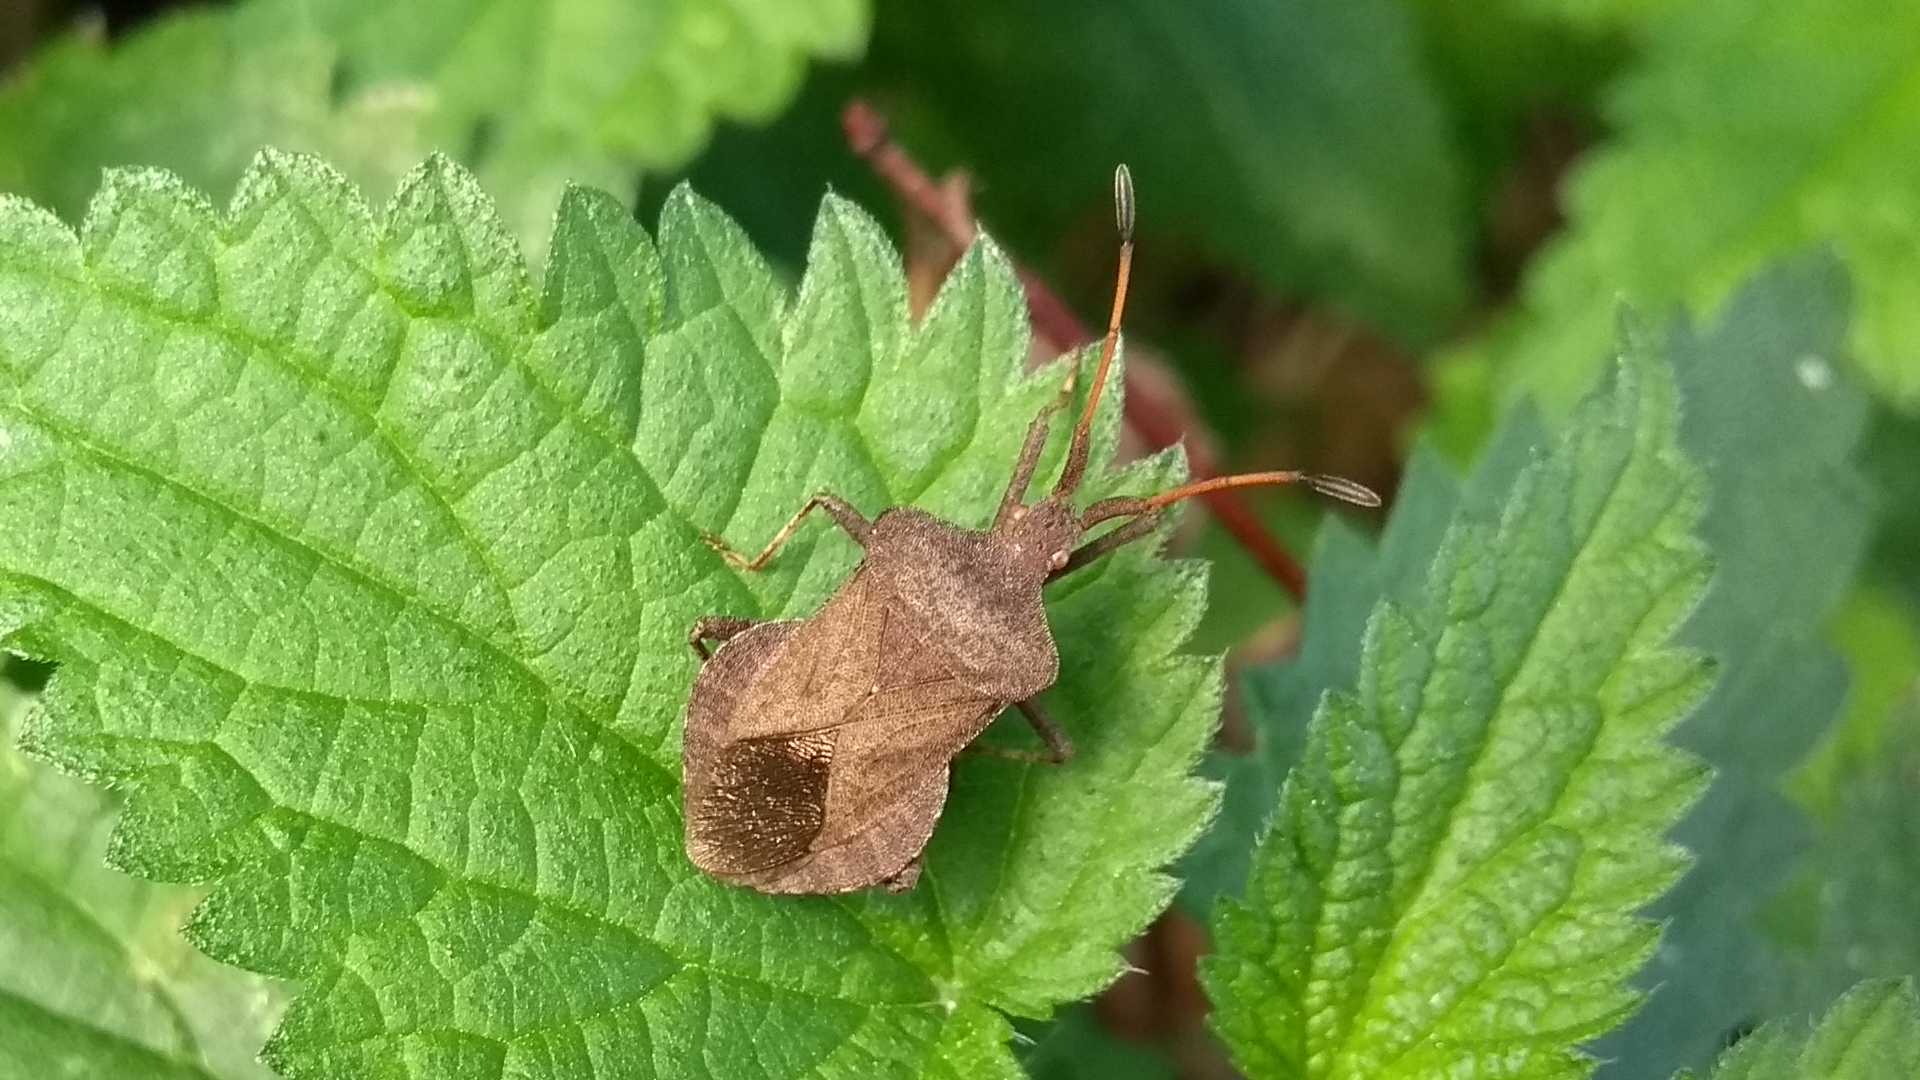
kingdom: Animalia
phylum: Arthropoda
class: Insecta
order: Hemiptera
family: Coreidae
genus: Coreus
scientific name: Coreus marginatus
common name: Dock bug
